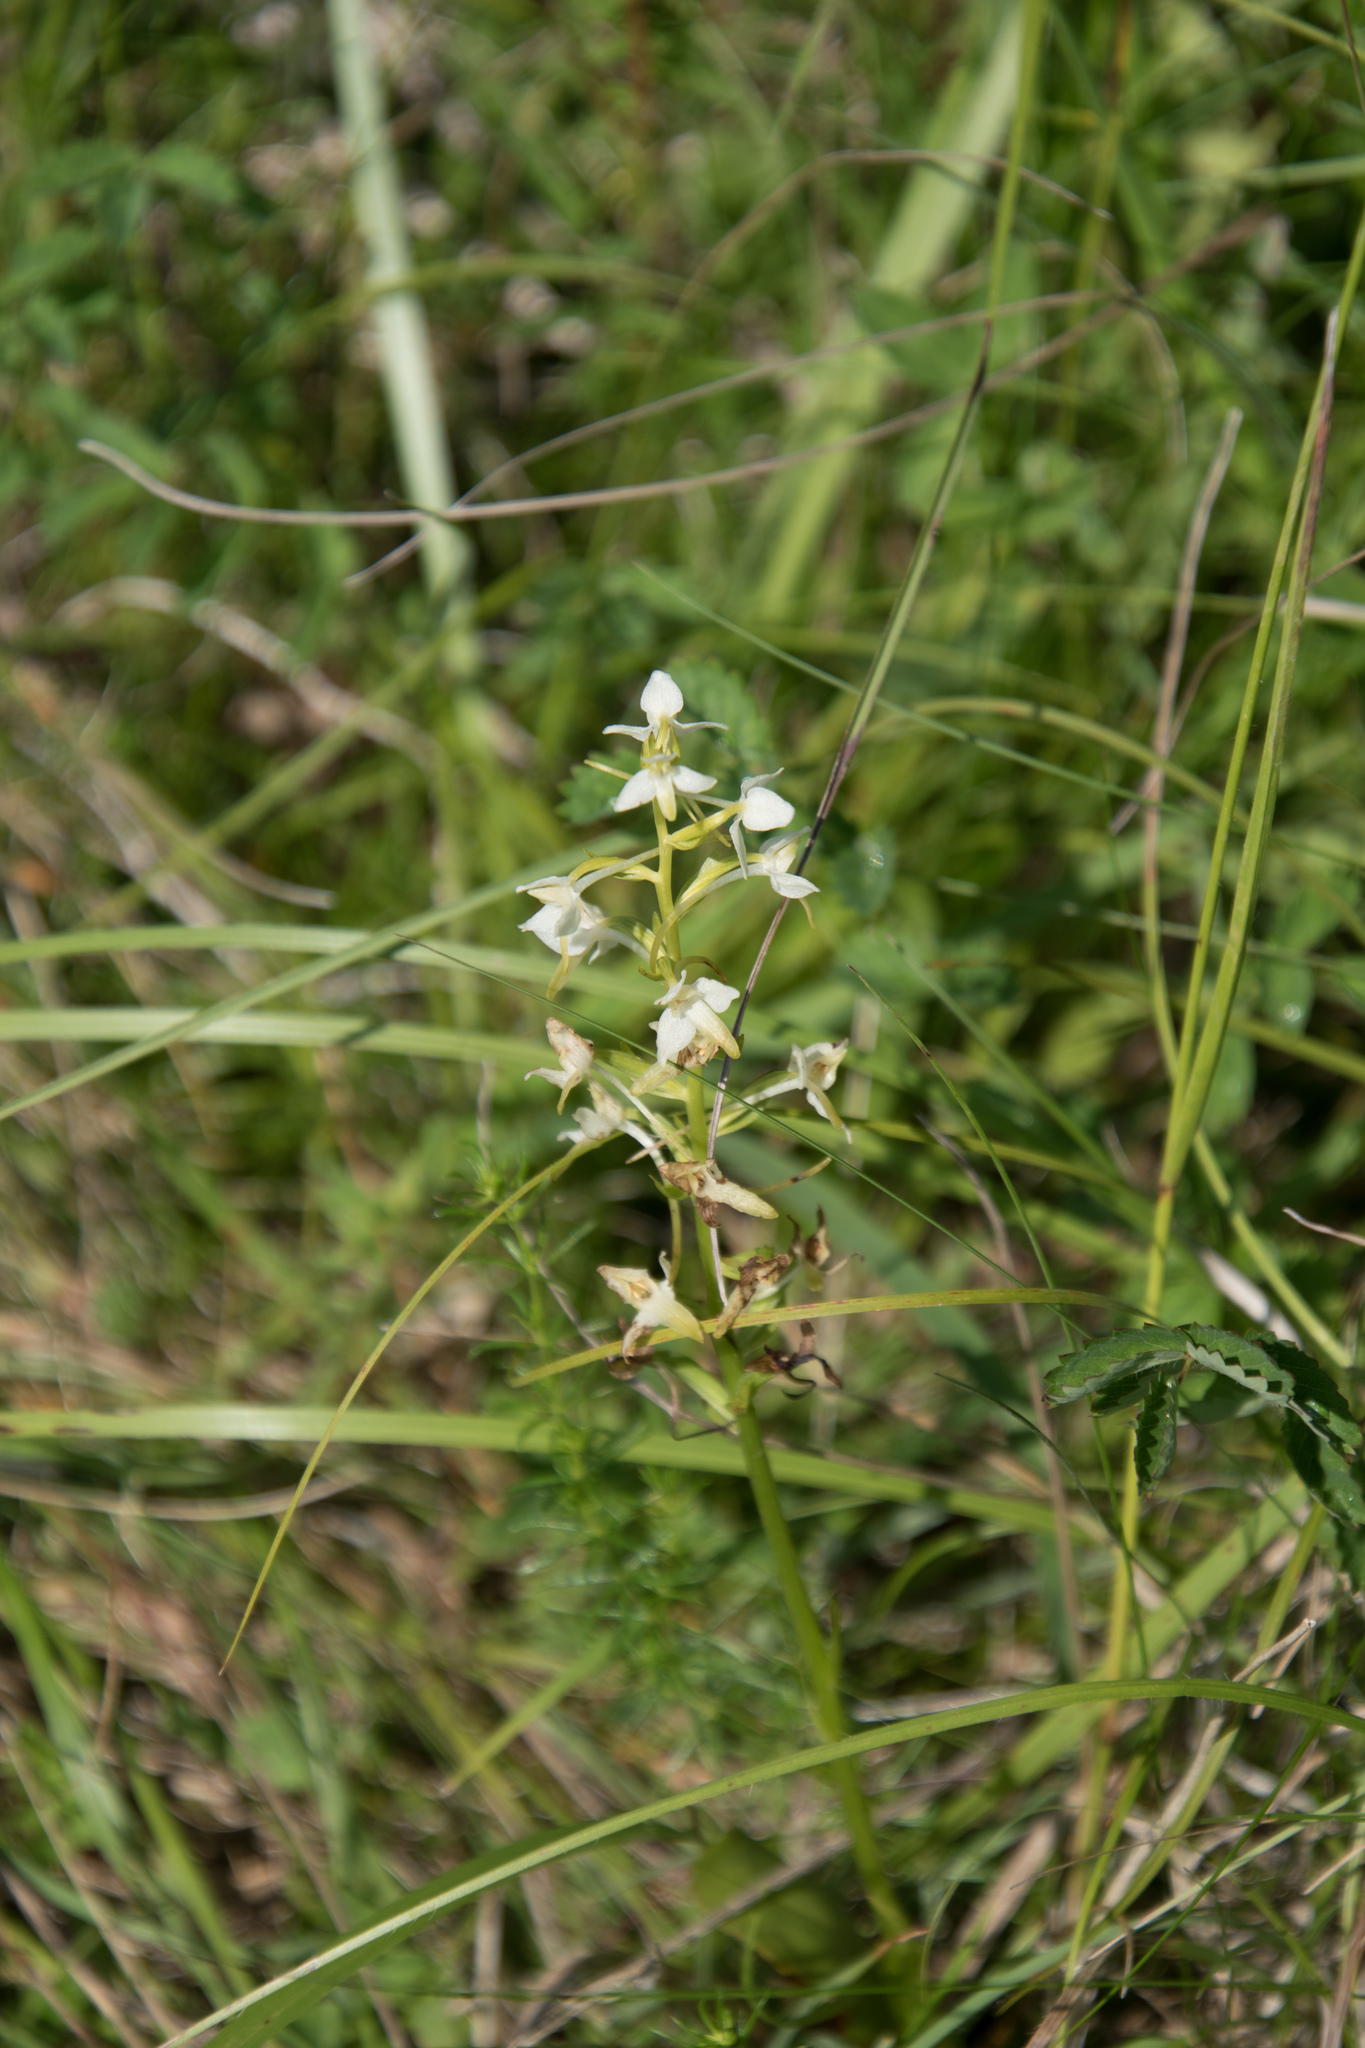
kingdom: Plantae
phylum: Tracheophyta
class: Liliopsida
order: Asparagales
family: Orchidaceae
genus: Platanthera
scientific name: Platanthera bifolia
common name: Lesser butterfly-orchid
